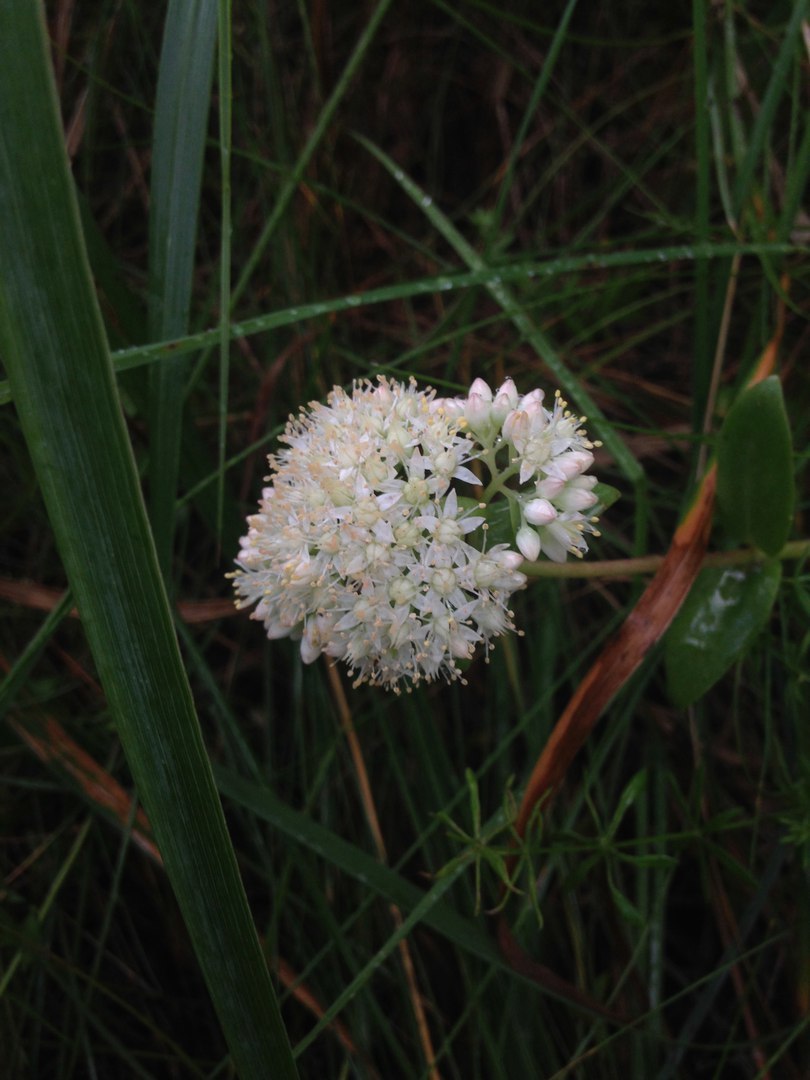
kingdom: Plantae
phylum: Tracheophyta
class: Magnoliopsida
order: Saxifragales
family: Crassulaceae
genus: Hylotelephium
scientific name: Hylotelephium maximum
